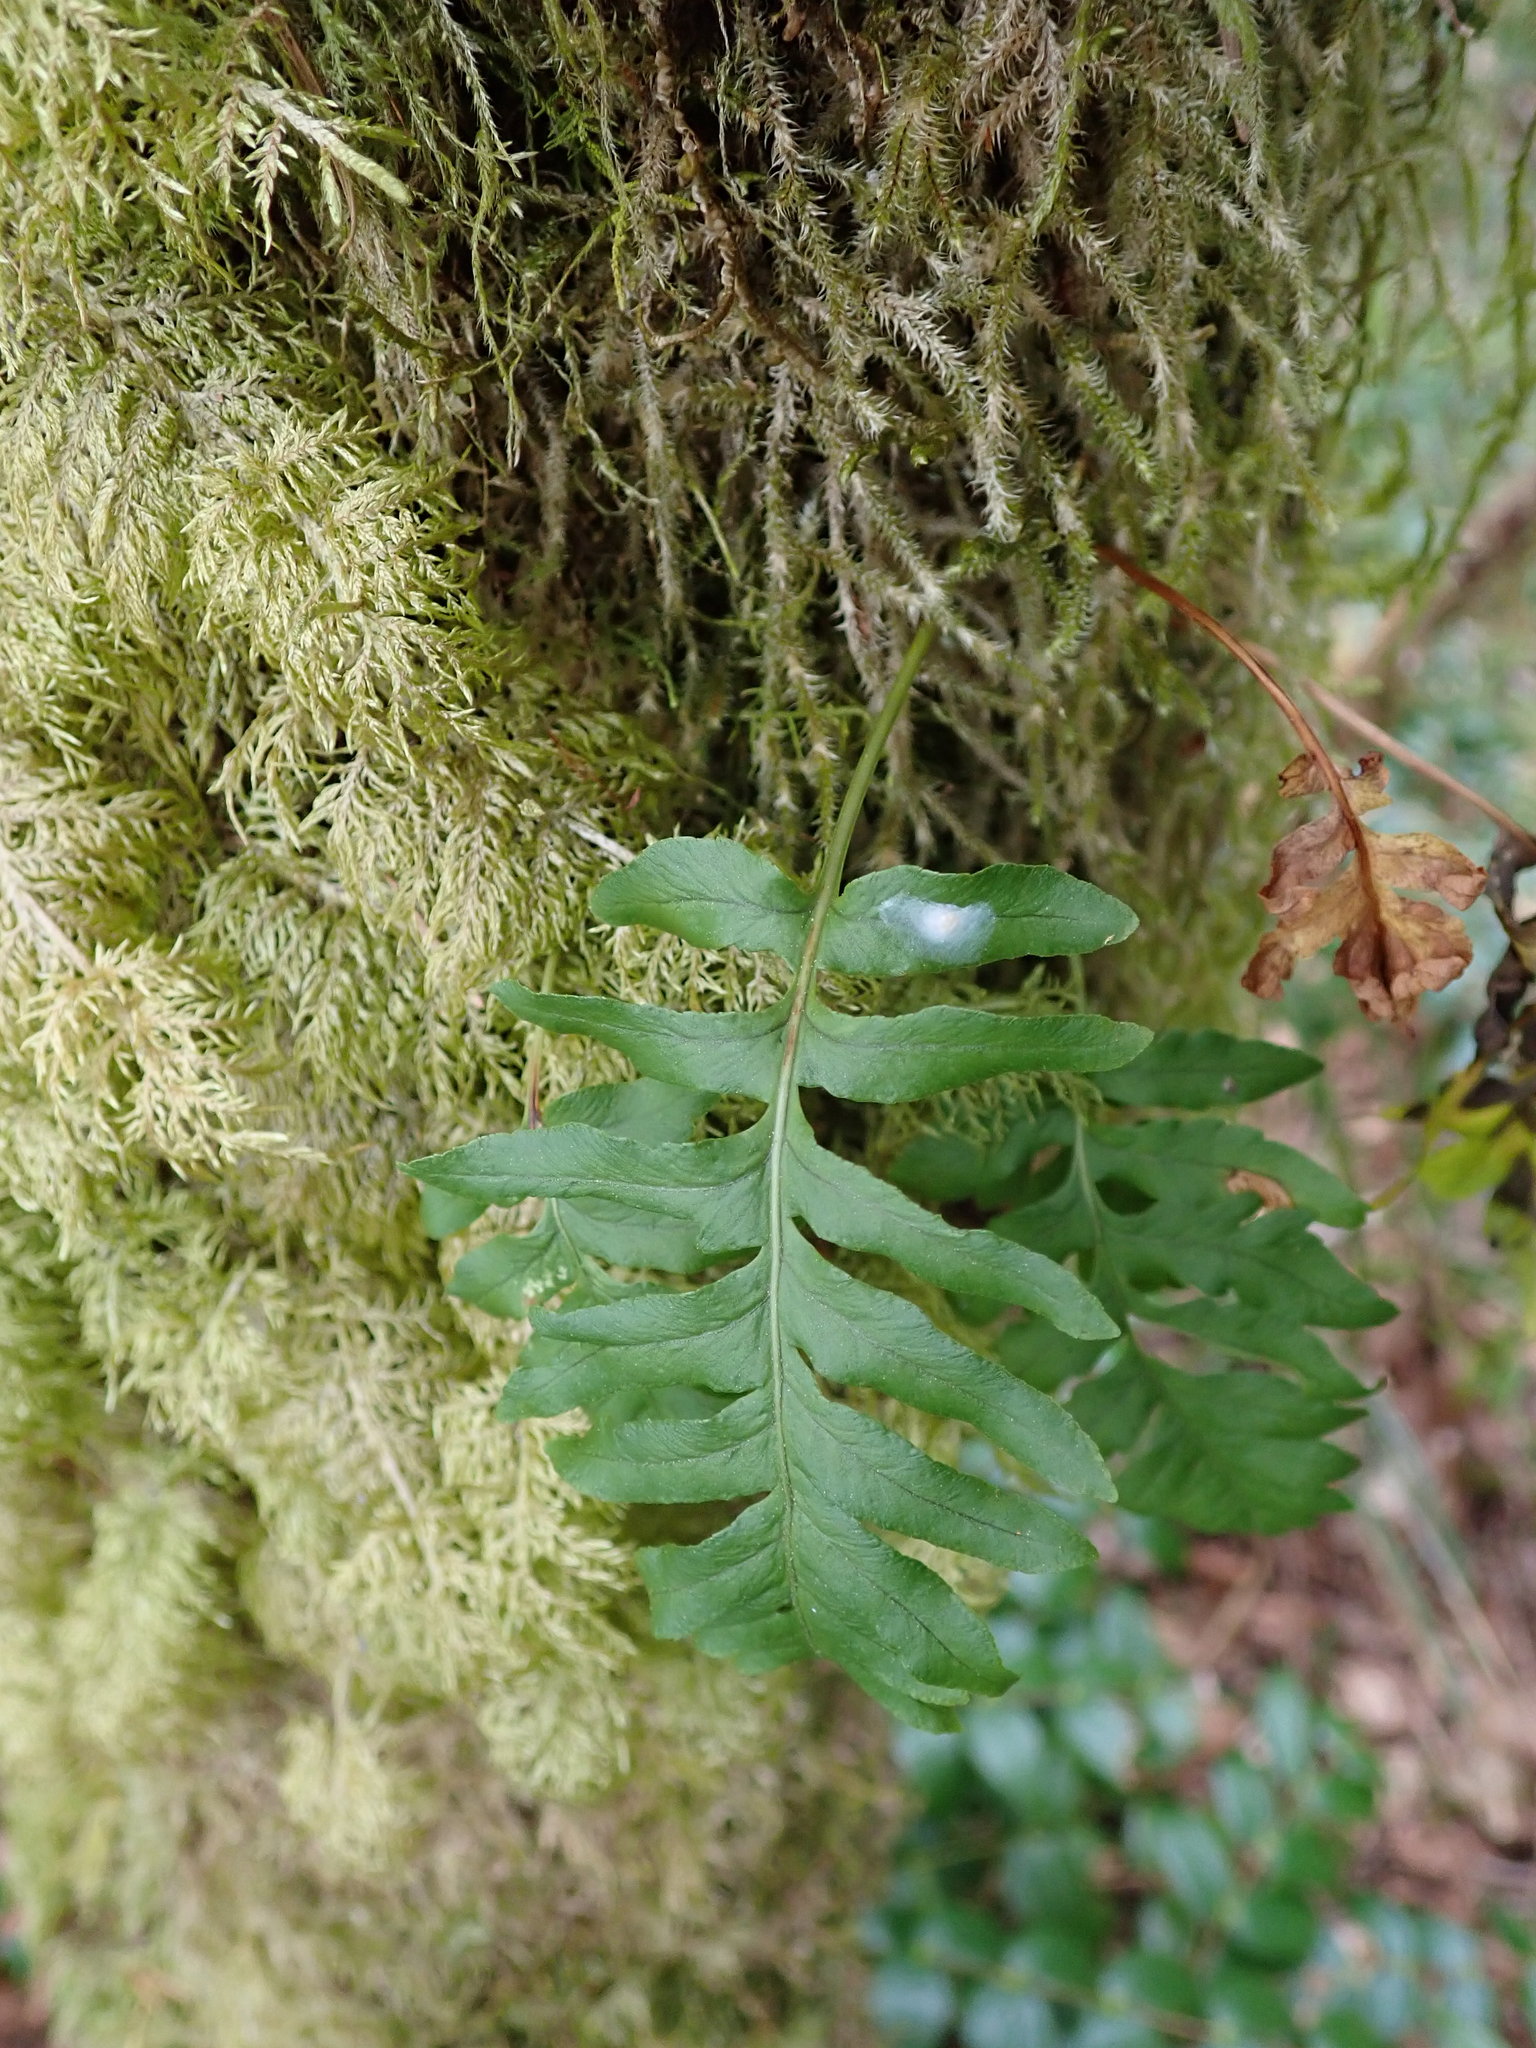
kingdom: Plantae
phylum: Tracheophyta
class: Polypodiopsida
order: Polypodiales
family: Polypodiaceae
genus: Polypodium
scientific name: Polypodium glycyrrhiza
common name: Licorice fern
